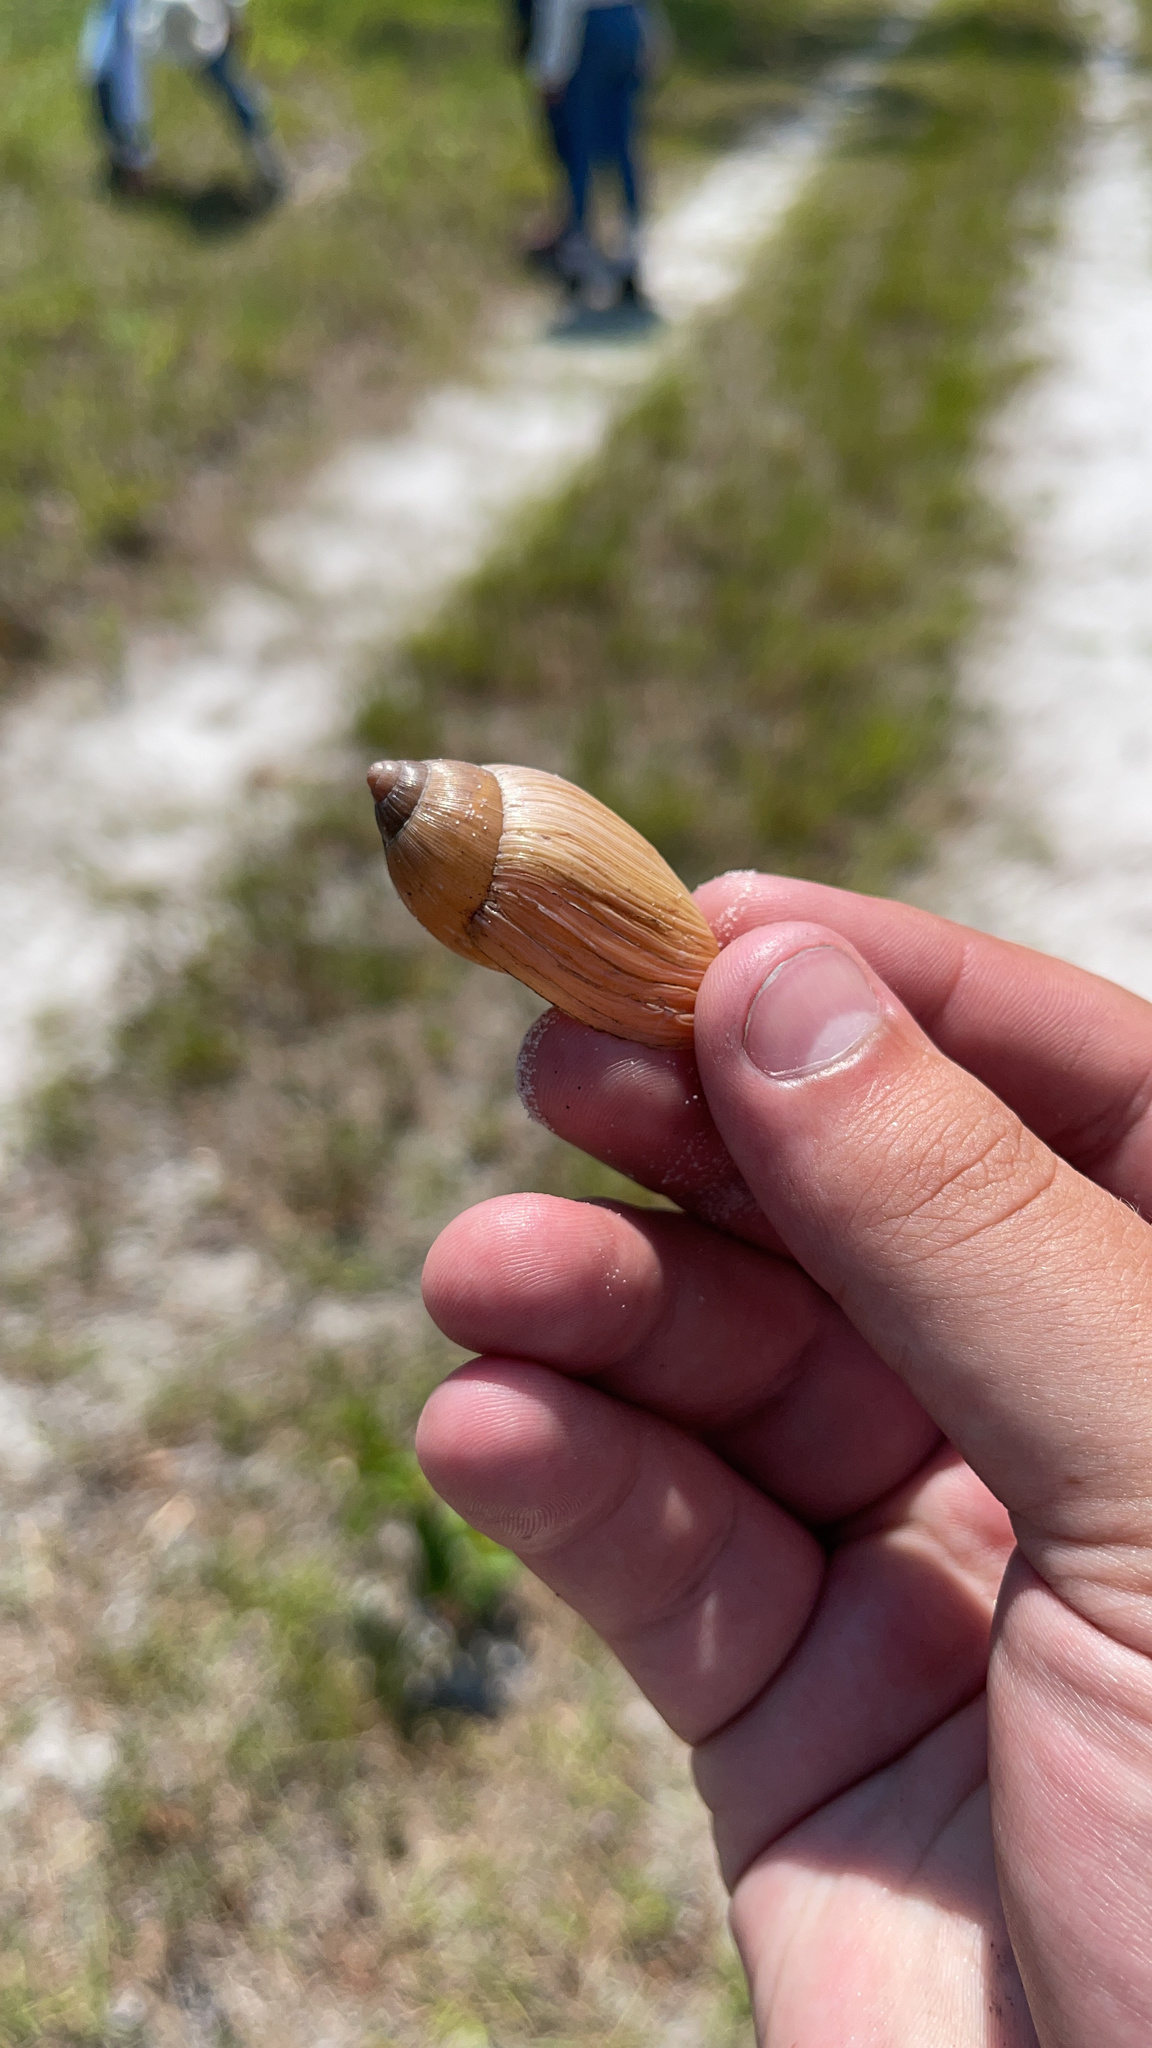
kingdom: Animalia
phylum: Mollusca
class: Gastropoda
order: Stylommatophora
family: Spiraxidae
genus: Euglandina
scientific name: Euglandina rosea
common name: Rosy wolfsnail
